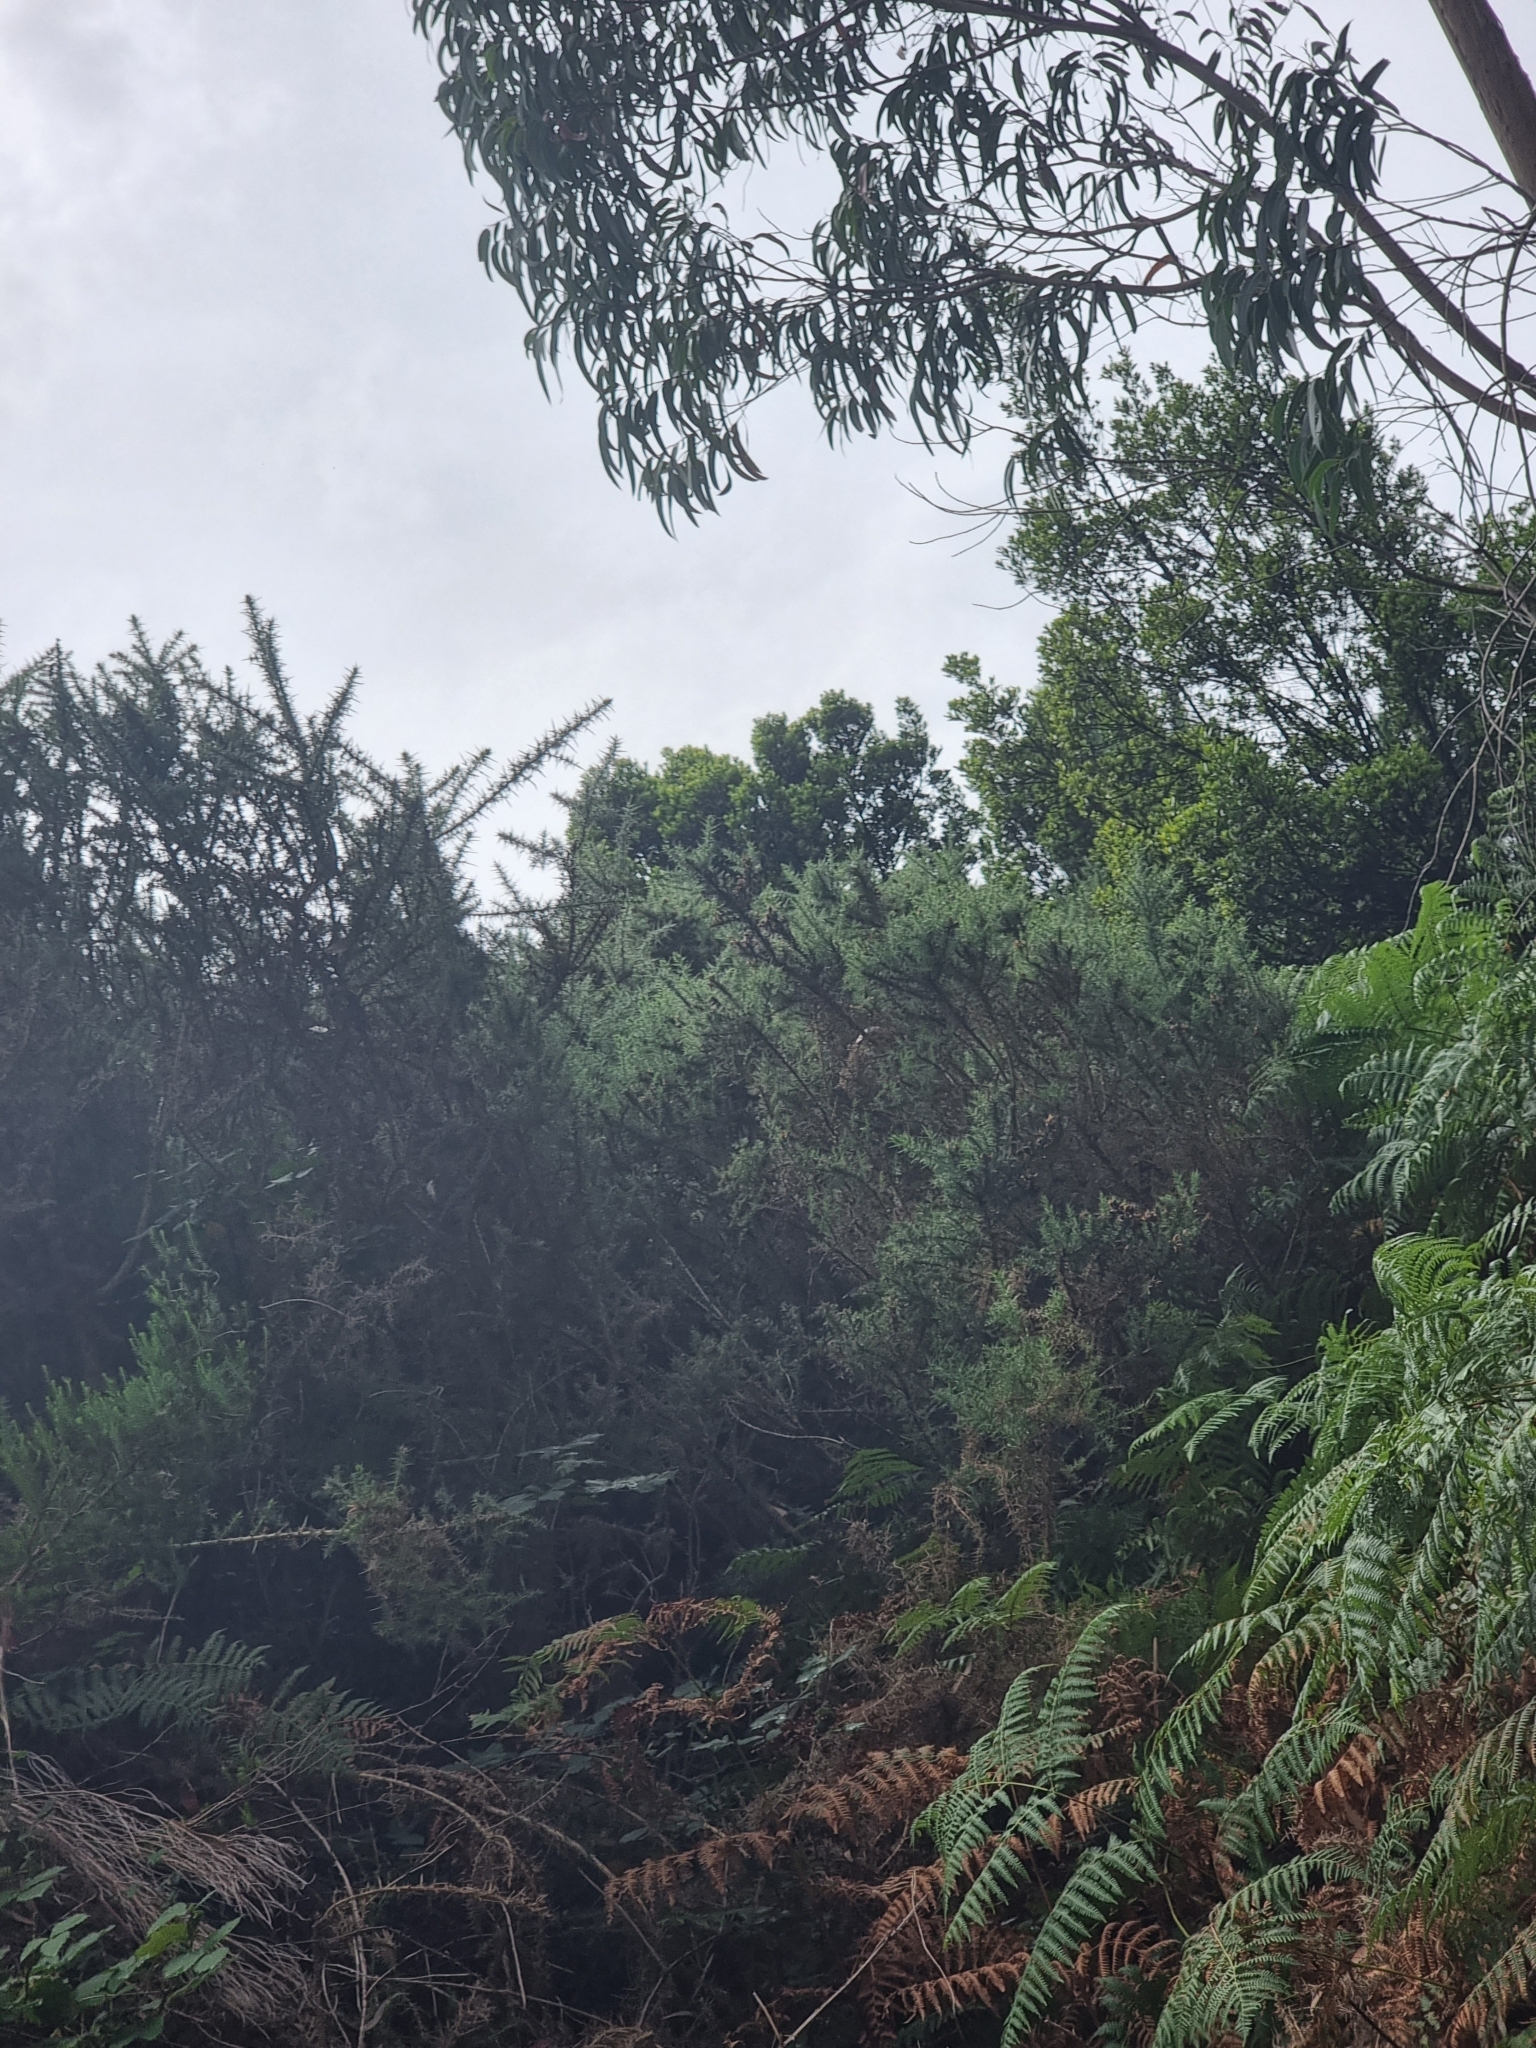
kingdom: Plantae
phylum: Tracheophyta
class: Magnoliopsida
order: Fabales
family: Fabaceae
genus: Ulex
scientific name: Ulex europaeus
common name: Common gorse
